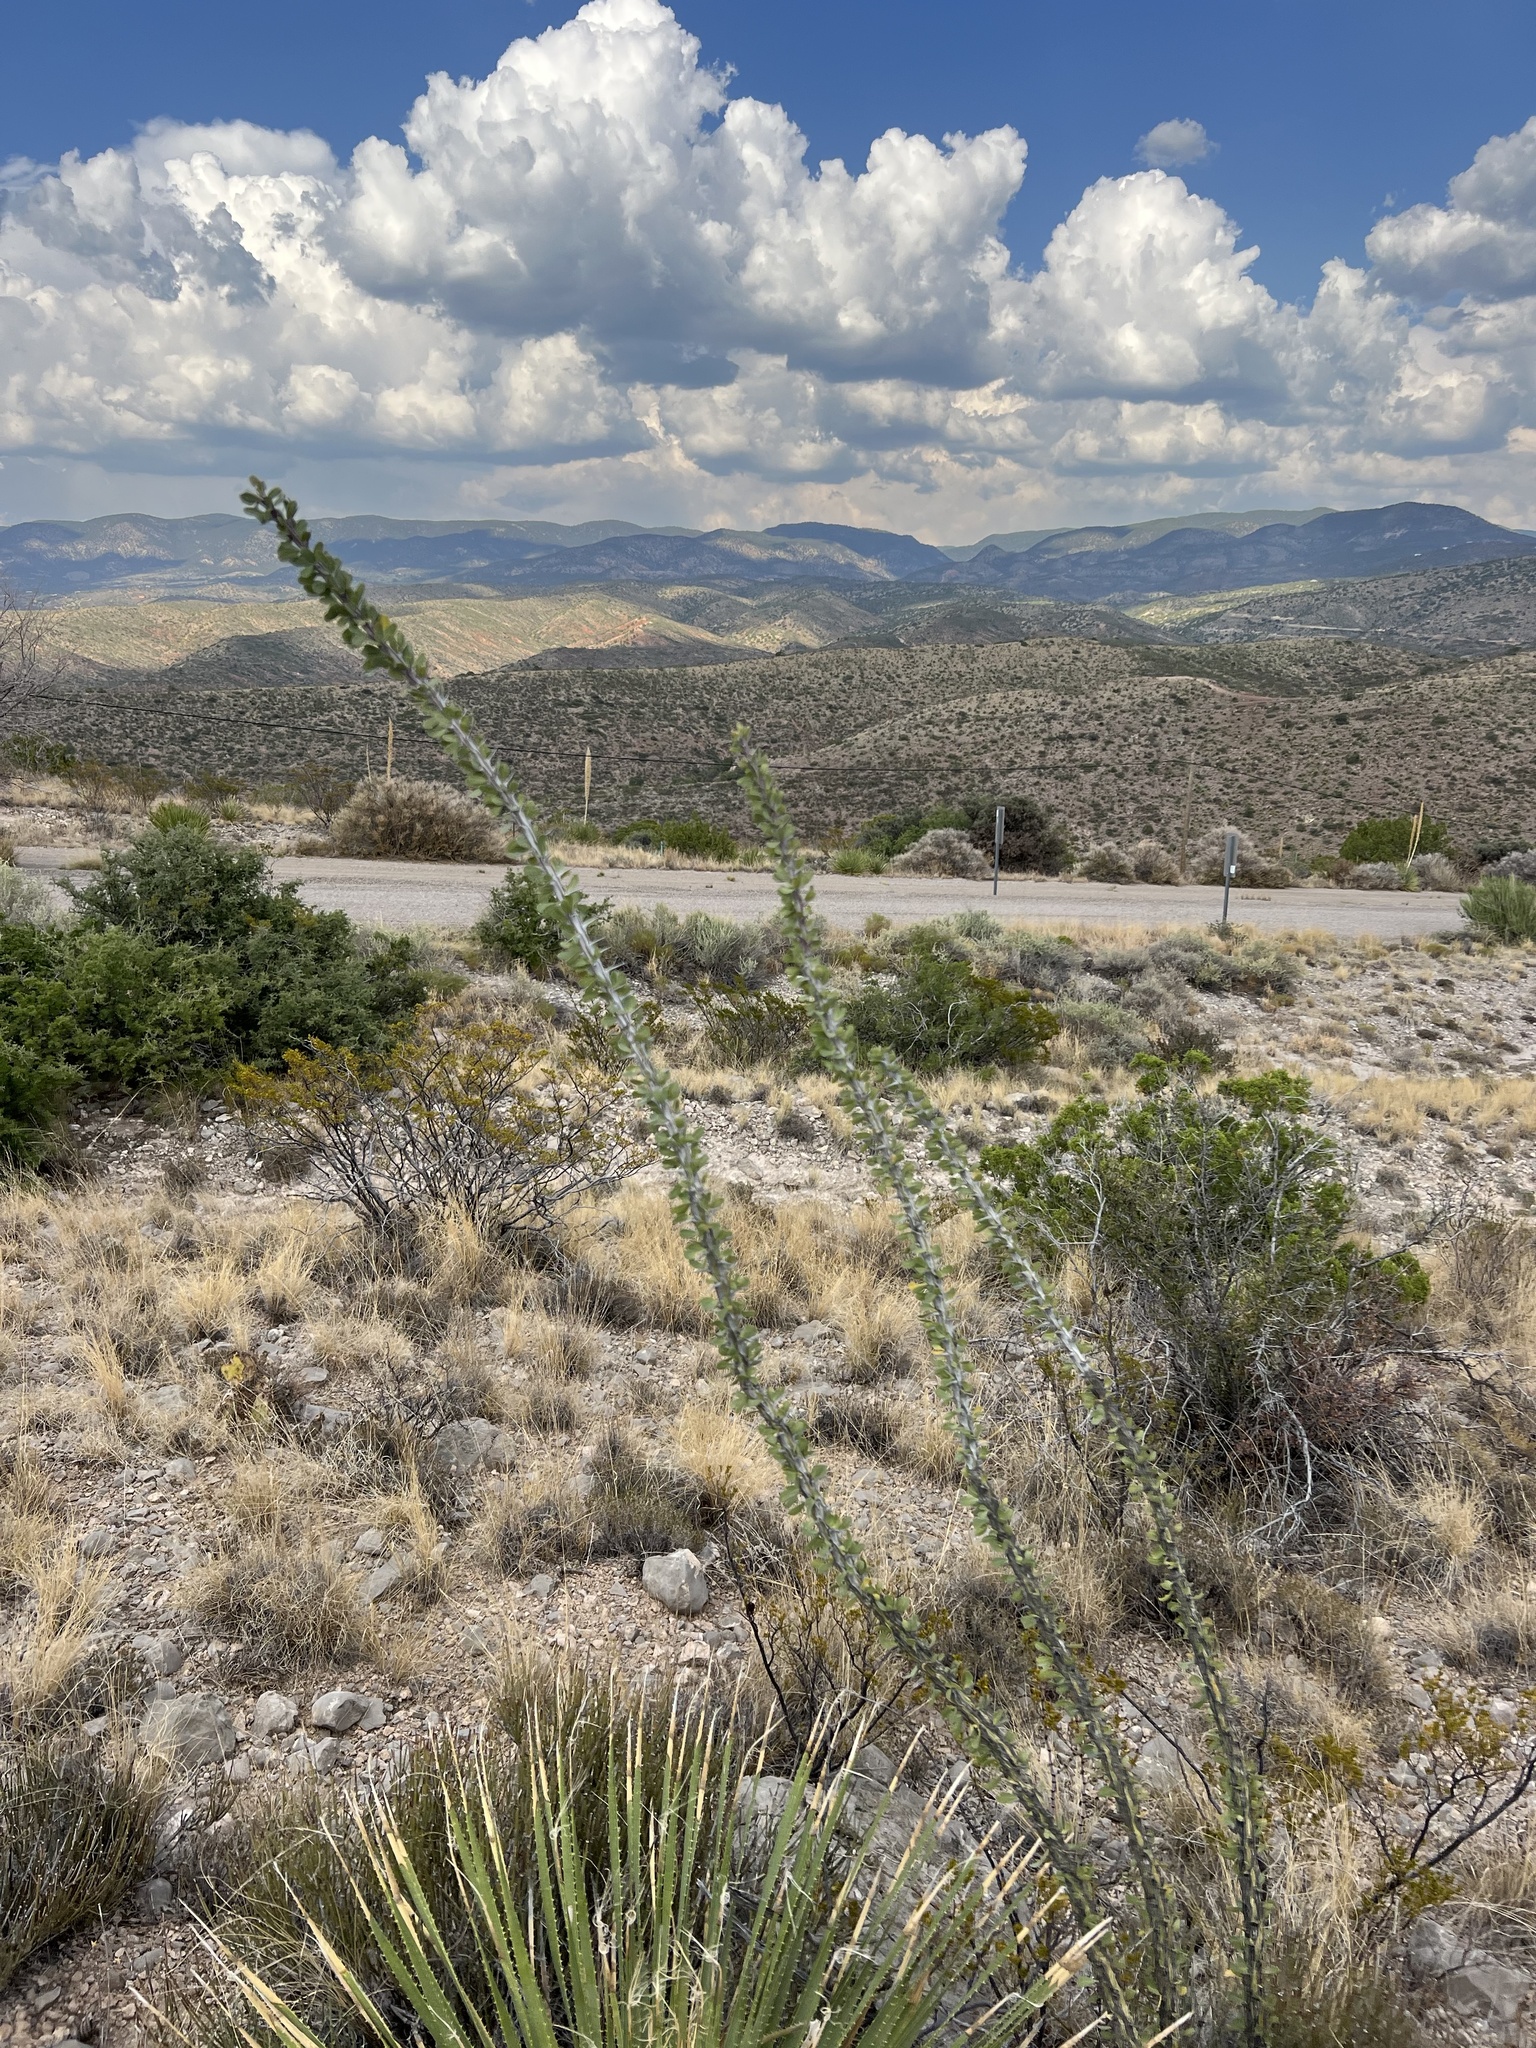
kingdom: Plantae
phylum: Tracheophyta
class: Magnoliopsida
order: Ericales
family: Fouquieriaceae
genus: Fouquieria
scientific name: Fouquieria splendens
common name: Vine-cactus
